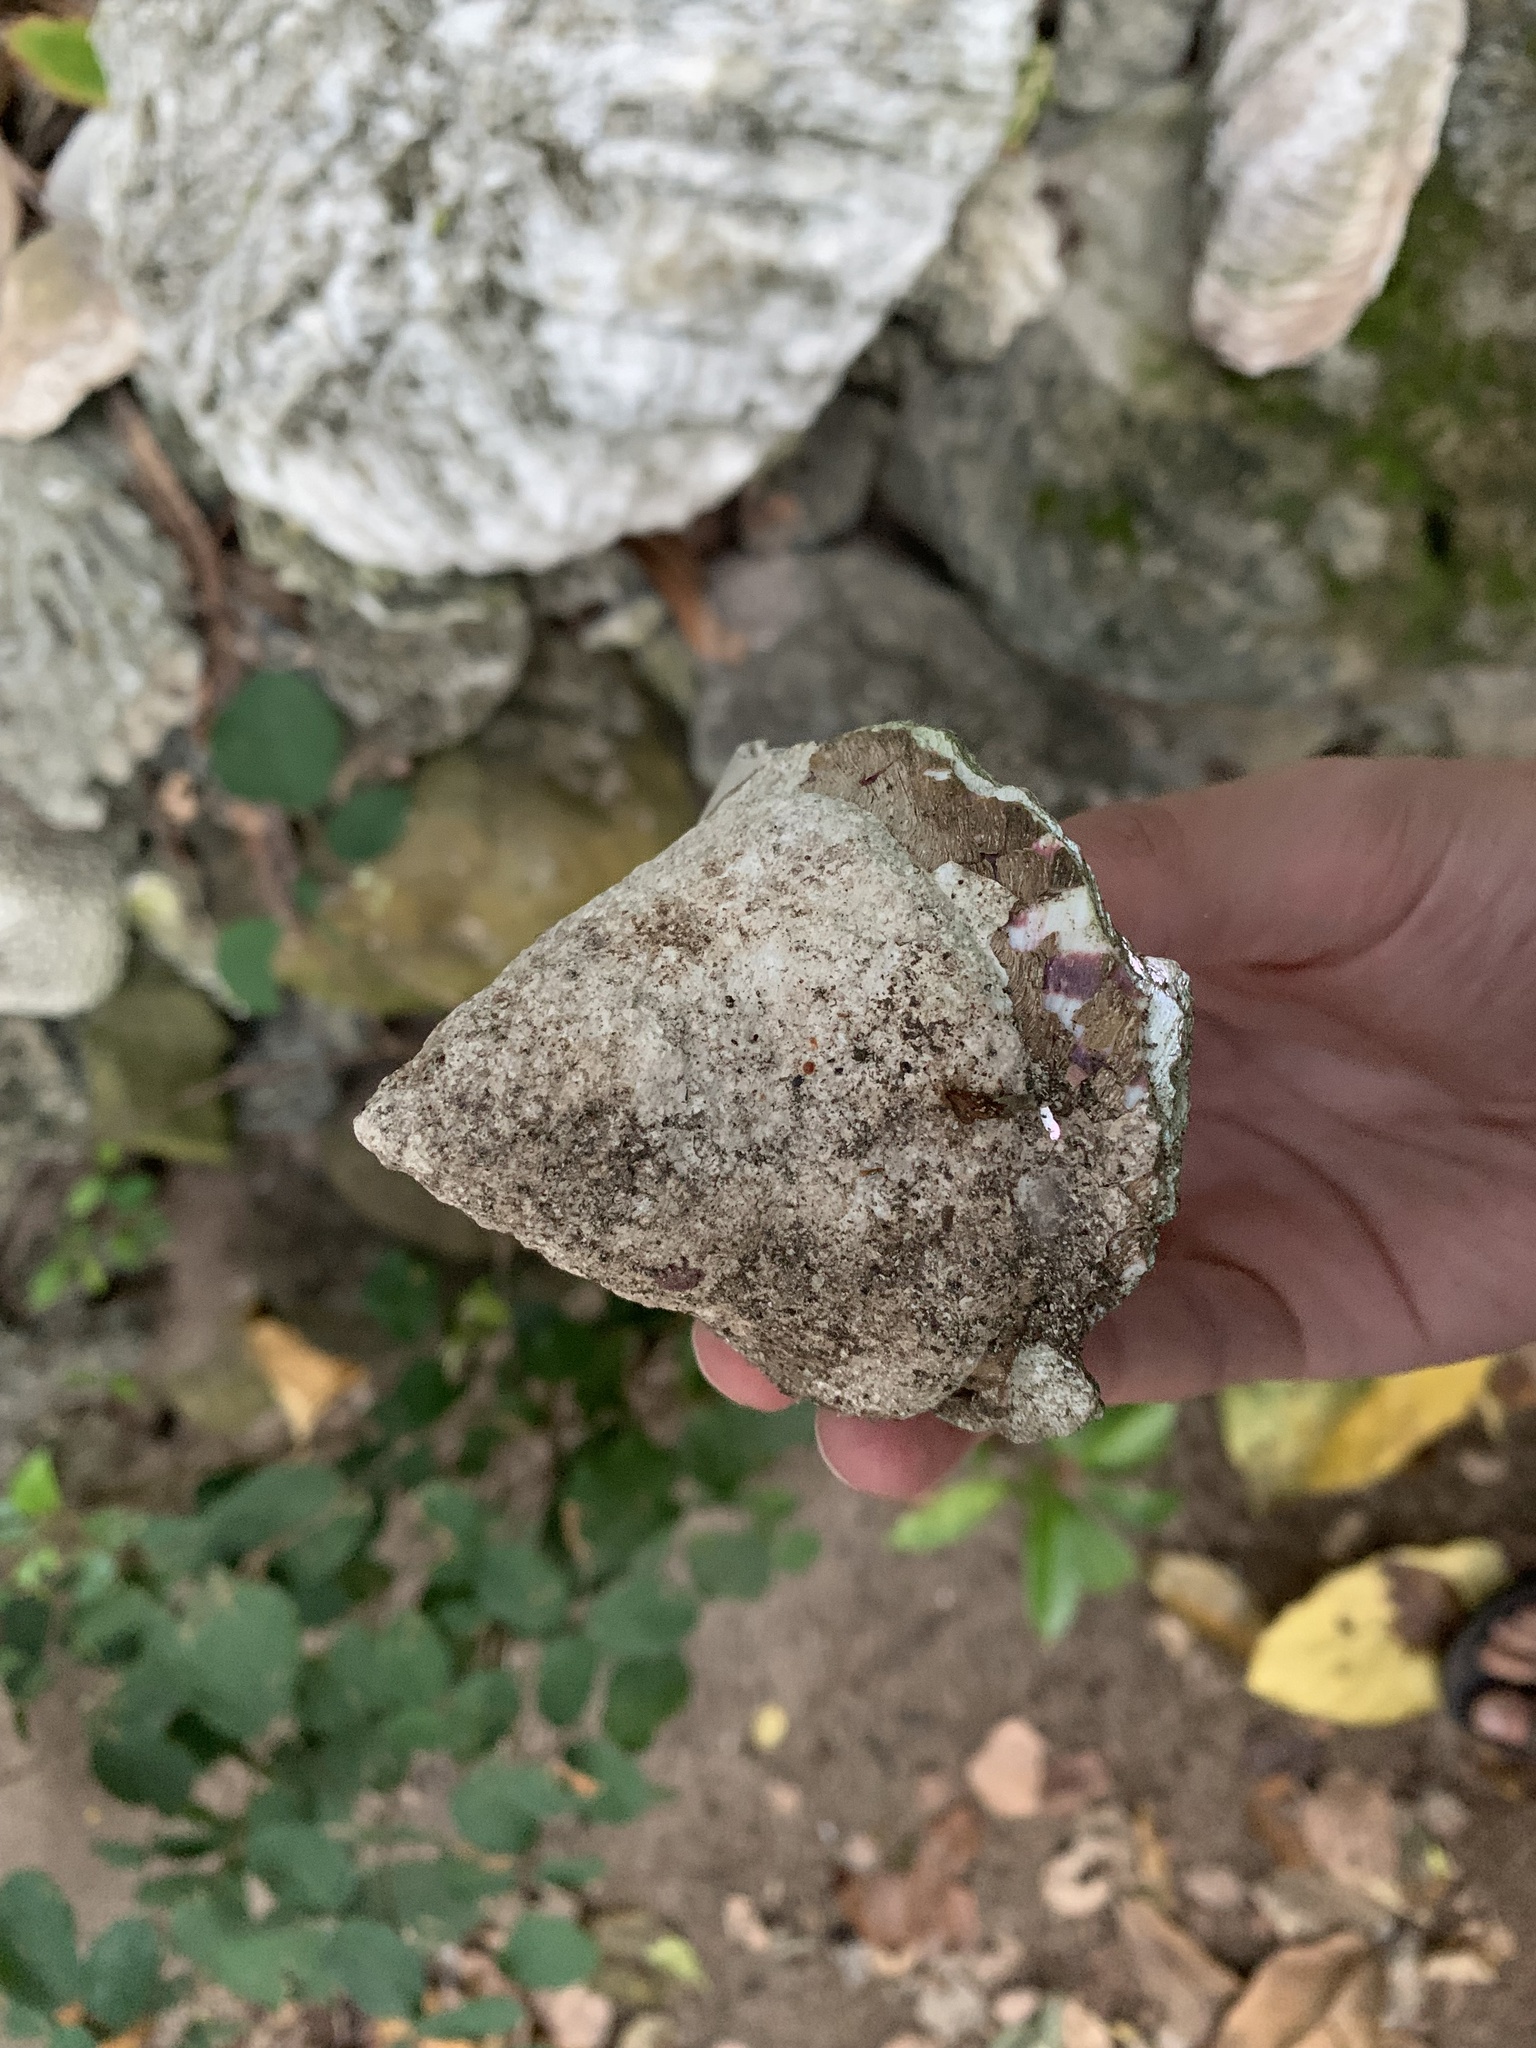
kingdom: Animalia
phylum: Mollusca
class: Gastropoda
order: Trochida
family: Tegulidae
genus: Rochia
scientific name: Rochia nilotica
